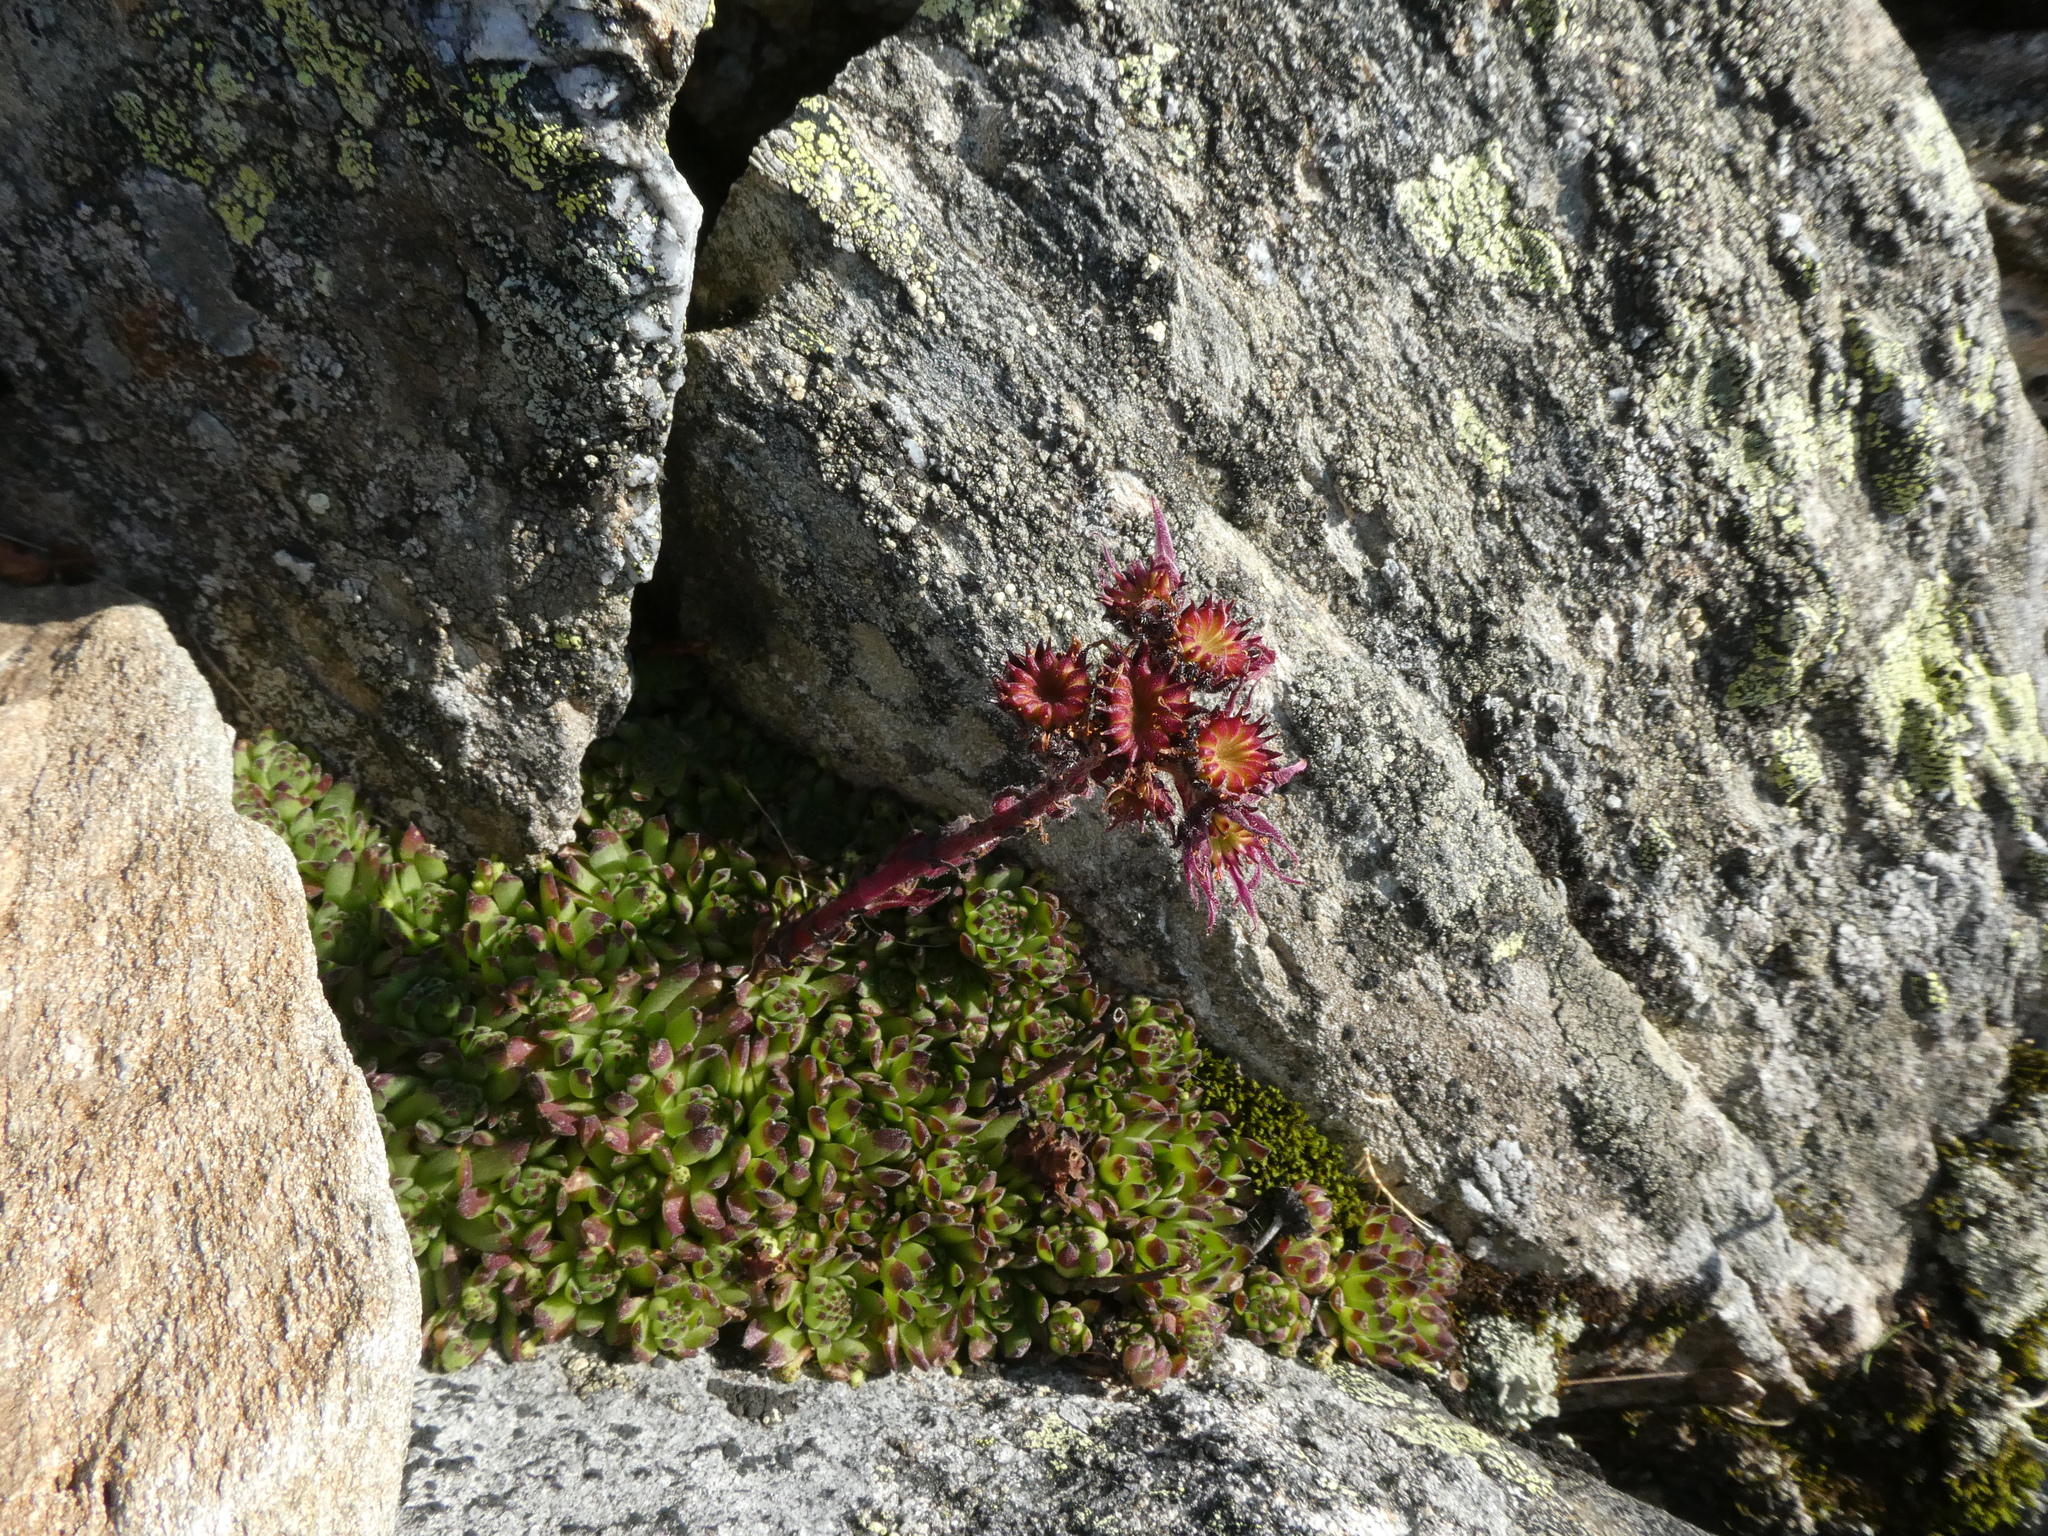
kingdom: Plantae
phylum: Tracheophyta
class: Magnoliopsida
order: Saxifragales
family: Crassulaceae
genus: Sempervivum
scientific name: Sempervivum montanum
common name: Mountain house-leek
